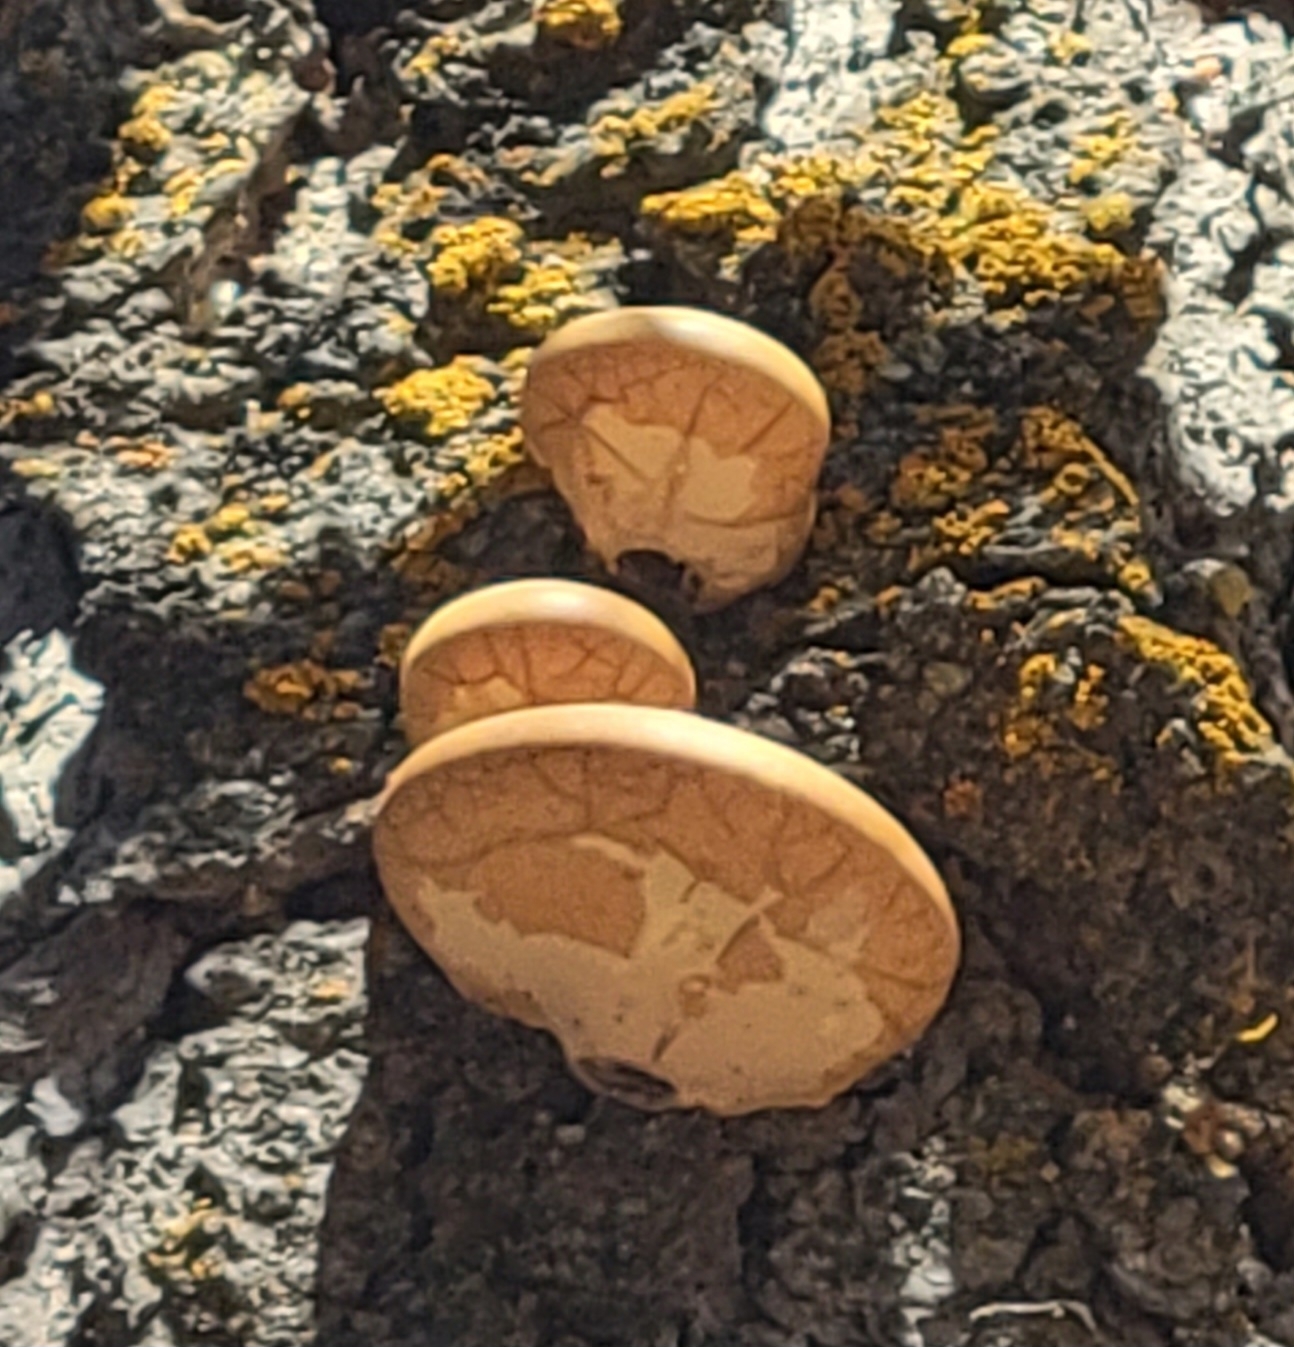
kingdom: Fungi
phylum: Basidiomycota
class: Agaricomycetes
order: Polyporales
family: Polyporaceae
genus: Cryptoporus
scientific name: Cryptoporus volvatus
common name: Veiled polypore
